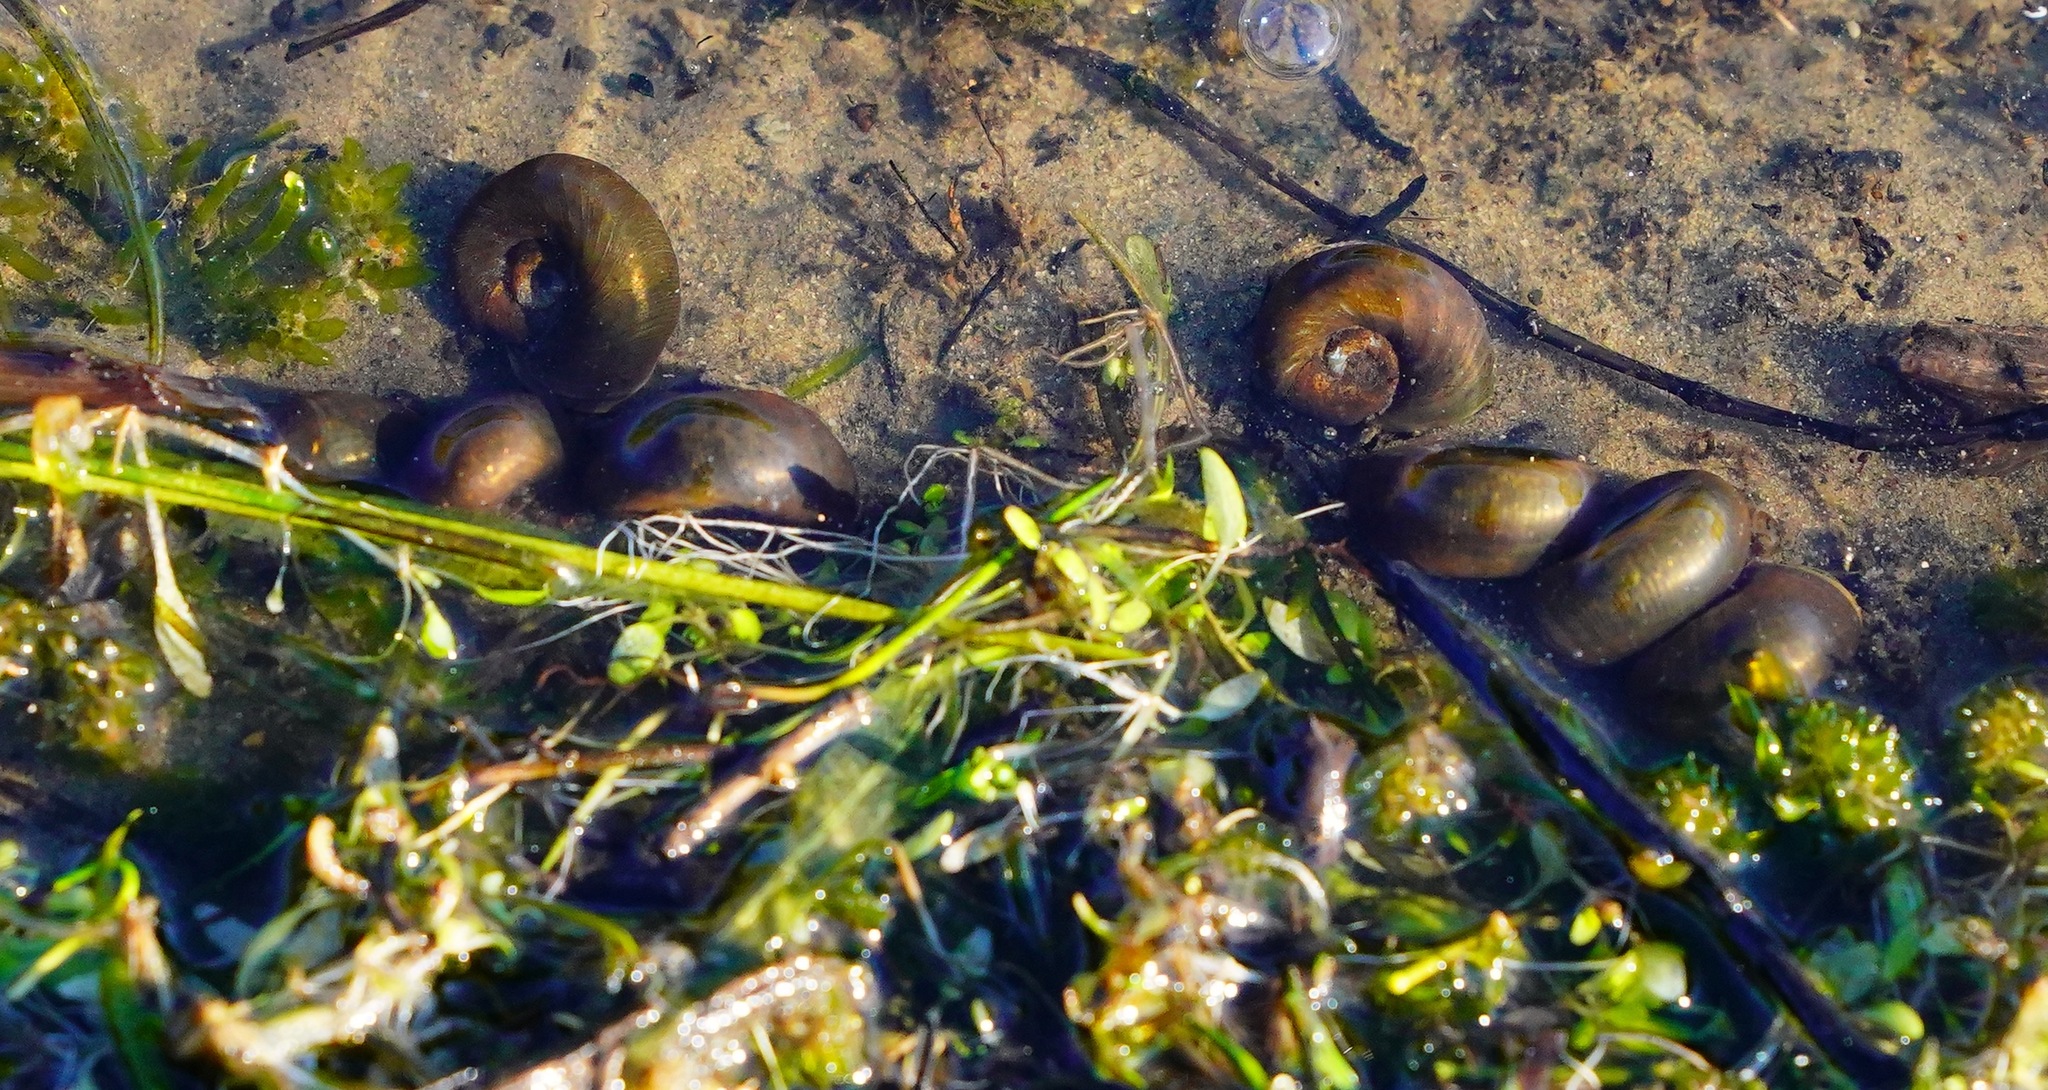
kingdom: Animalia
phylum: Mollusca
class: Gastropoda
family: Planorbidae
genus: Planorbella
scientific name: Planorbella trivolvis
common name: Marsh rams-horn
